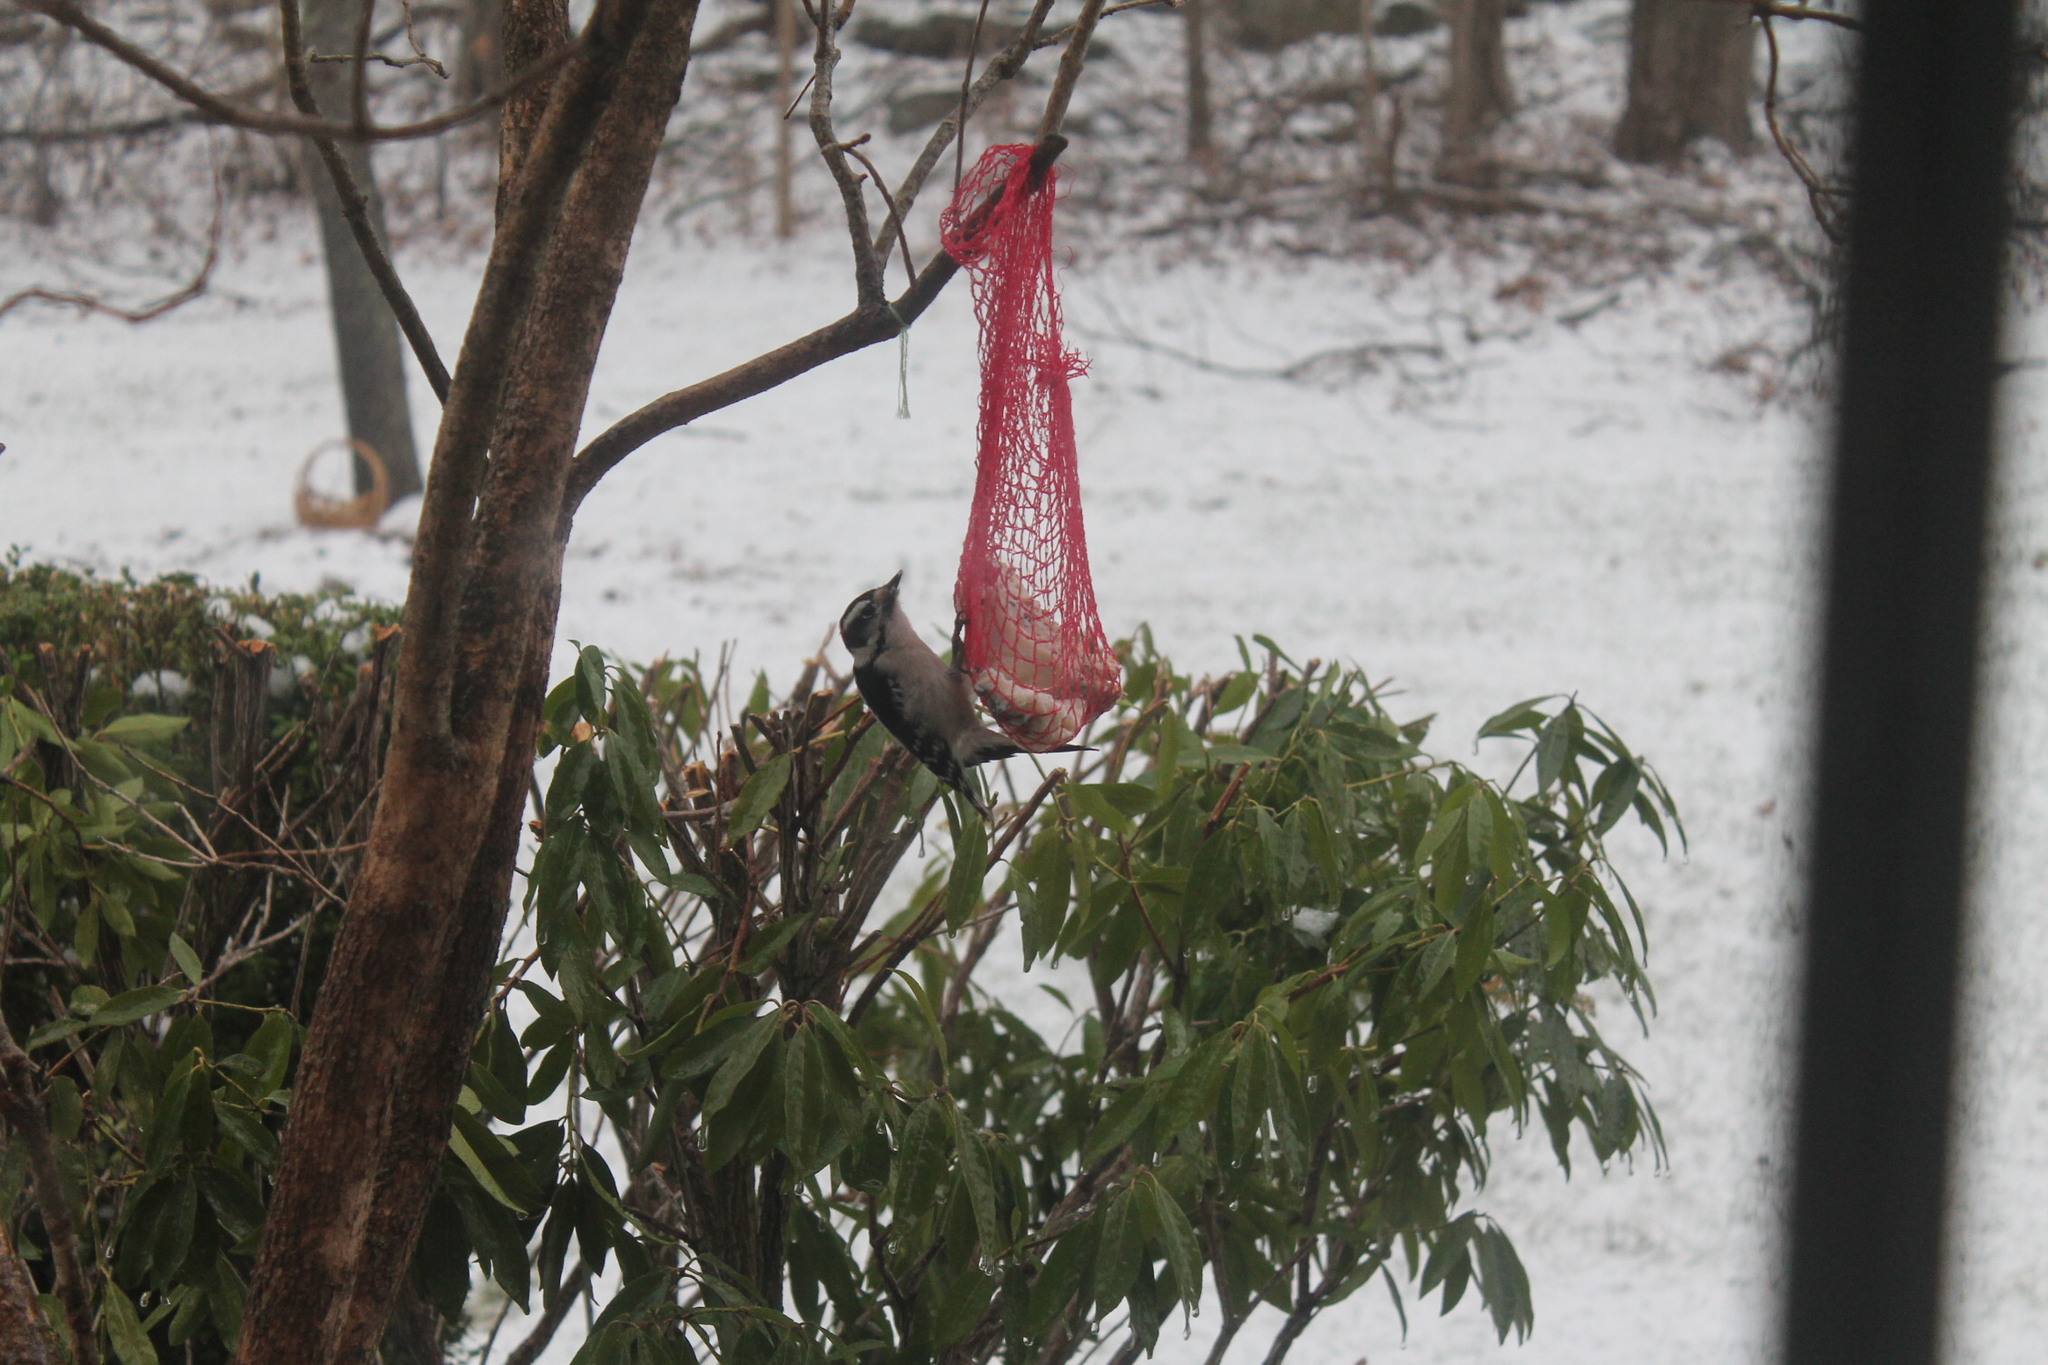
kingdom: Animalia
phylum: Chordata
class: Aves
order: Piciformes
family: Picidae
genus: Dryobates
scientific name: Dryobates pubescens
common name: Downy woodpecker
